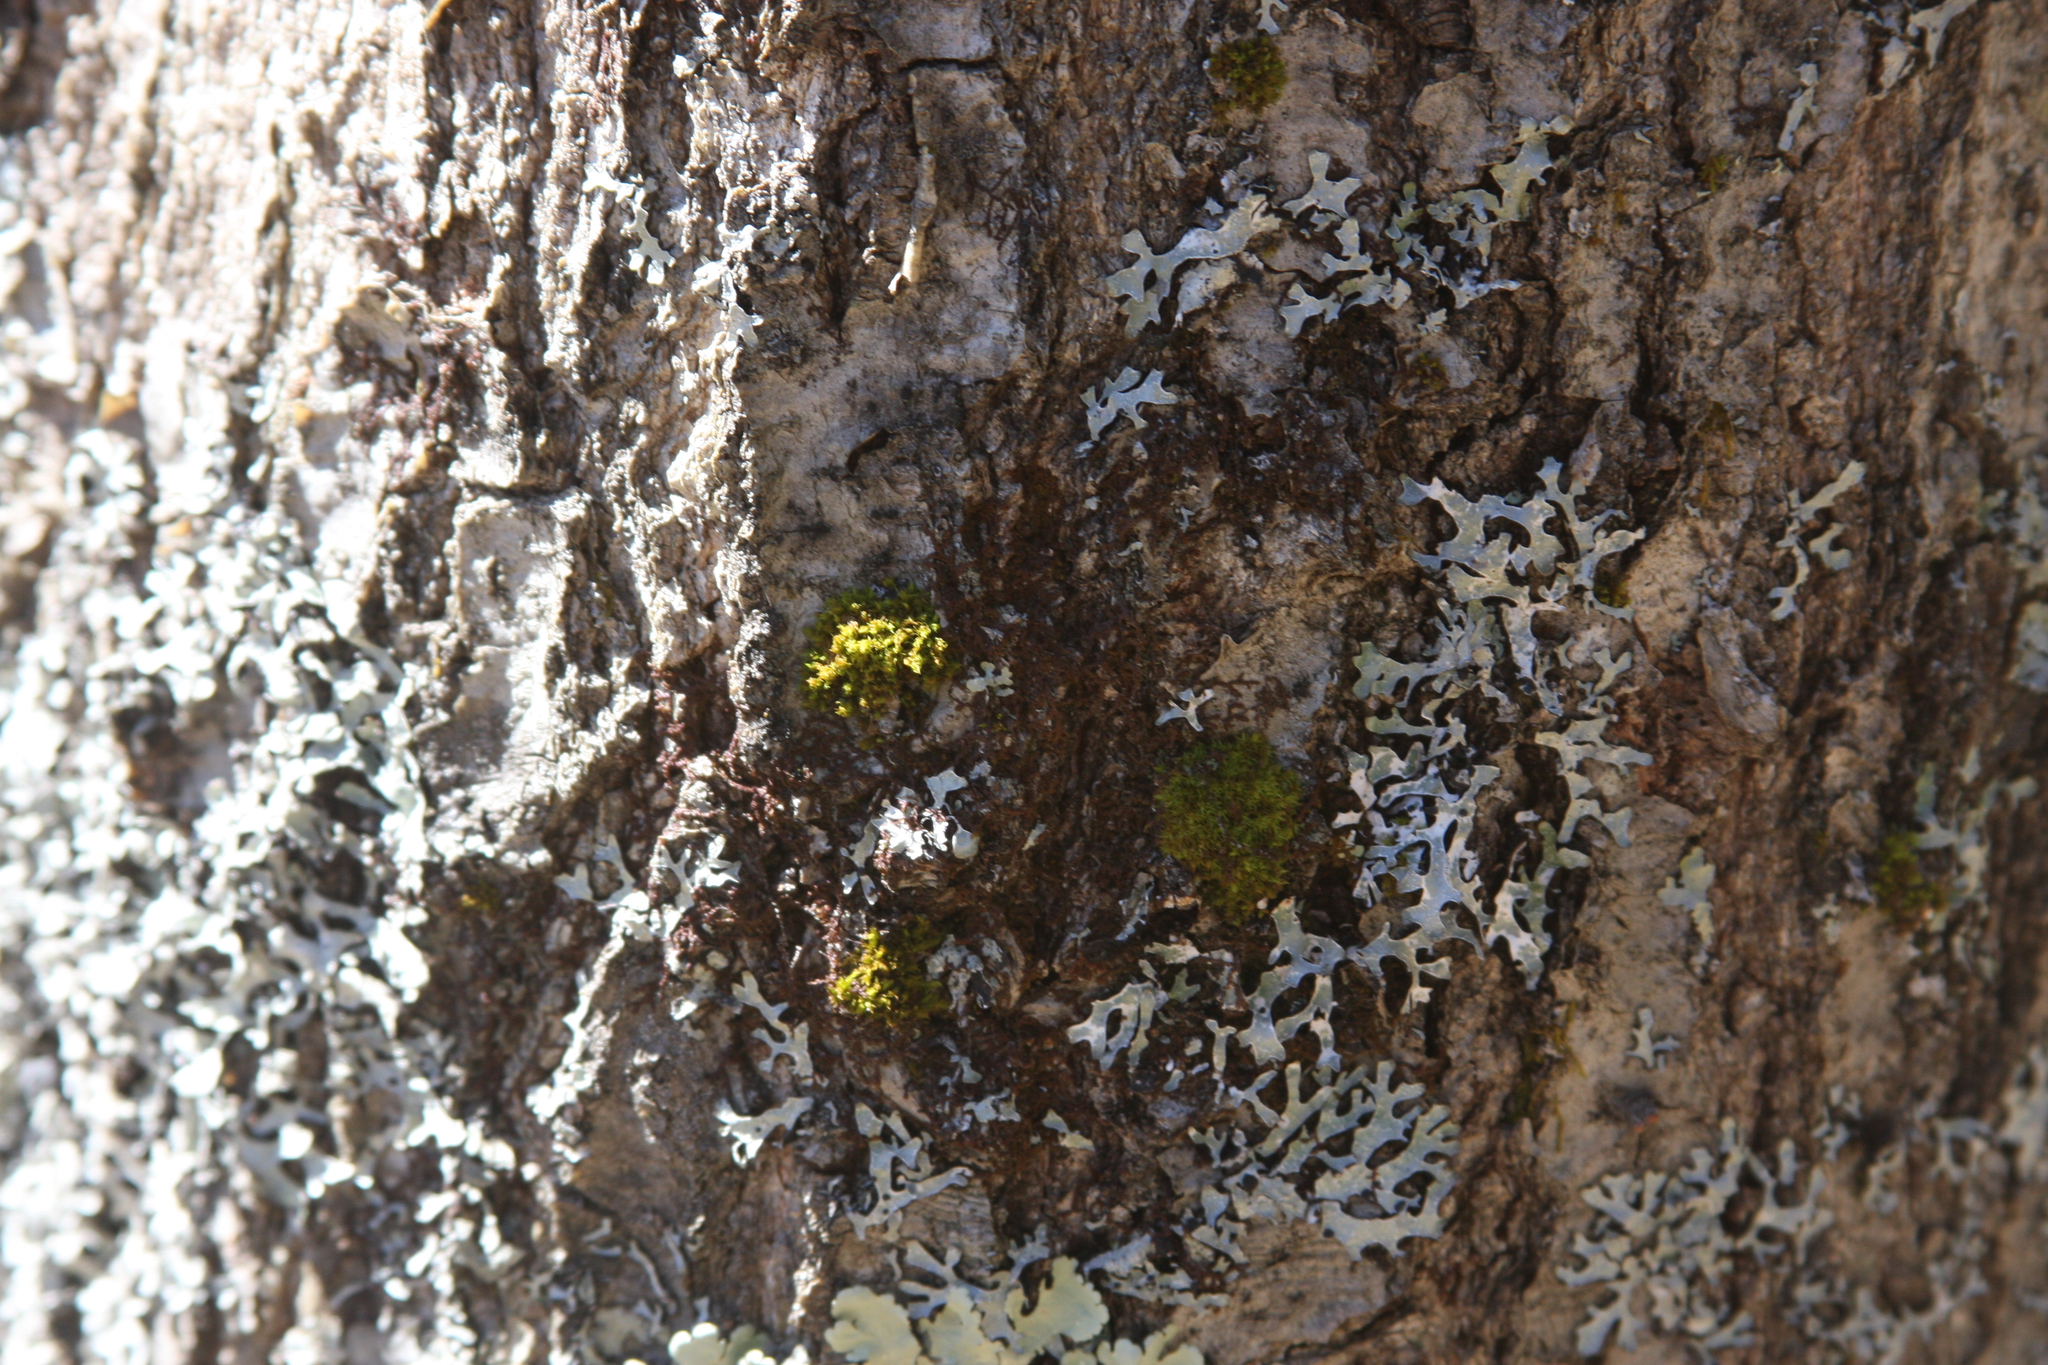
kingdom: Plantae
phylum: Bryophyta
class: Bryopsida
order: Orthotrichales
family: Orthotrichaceae
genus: Ulota
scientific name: Ulota crispa
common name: Crisped pincushion moss
